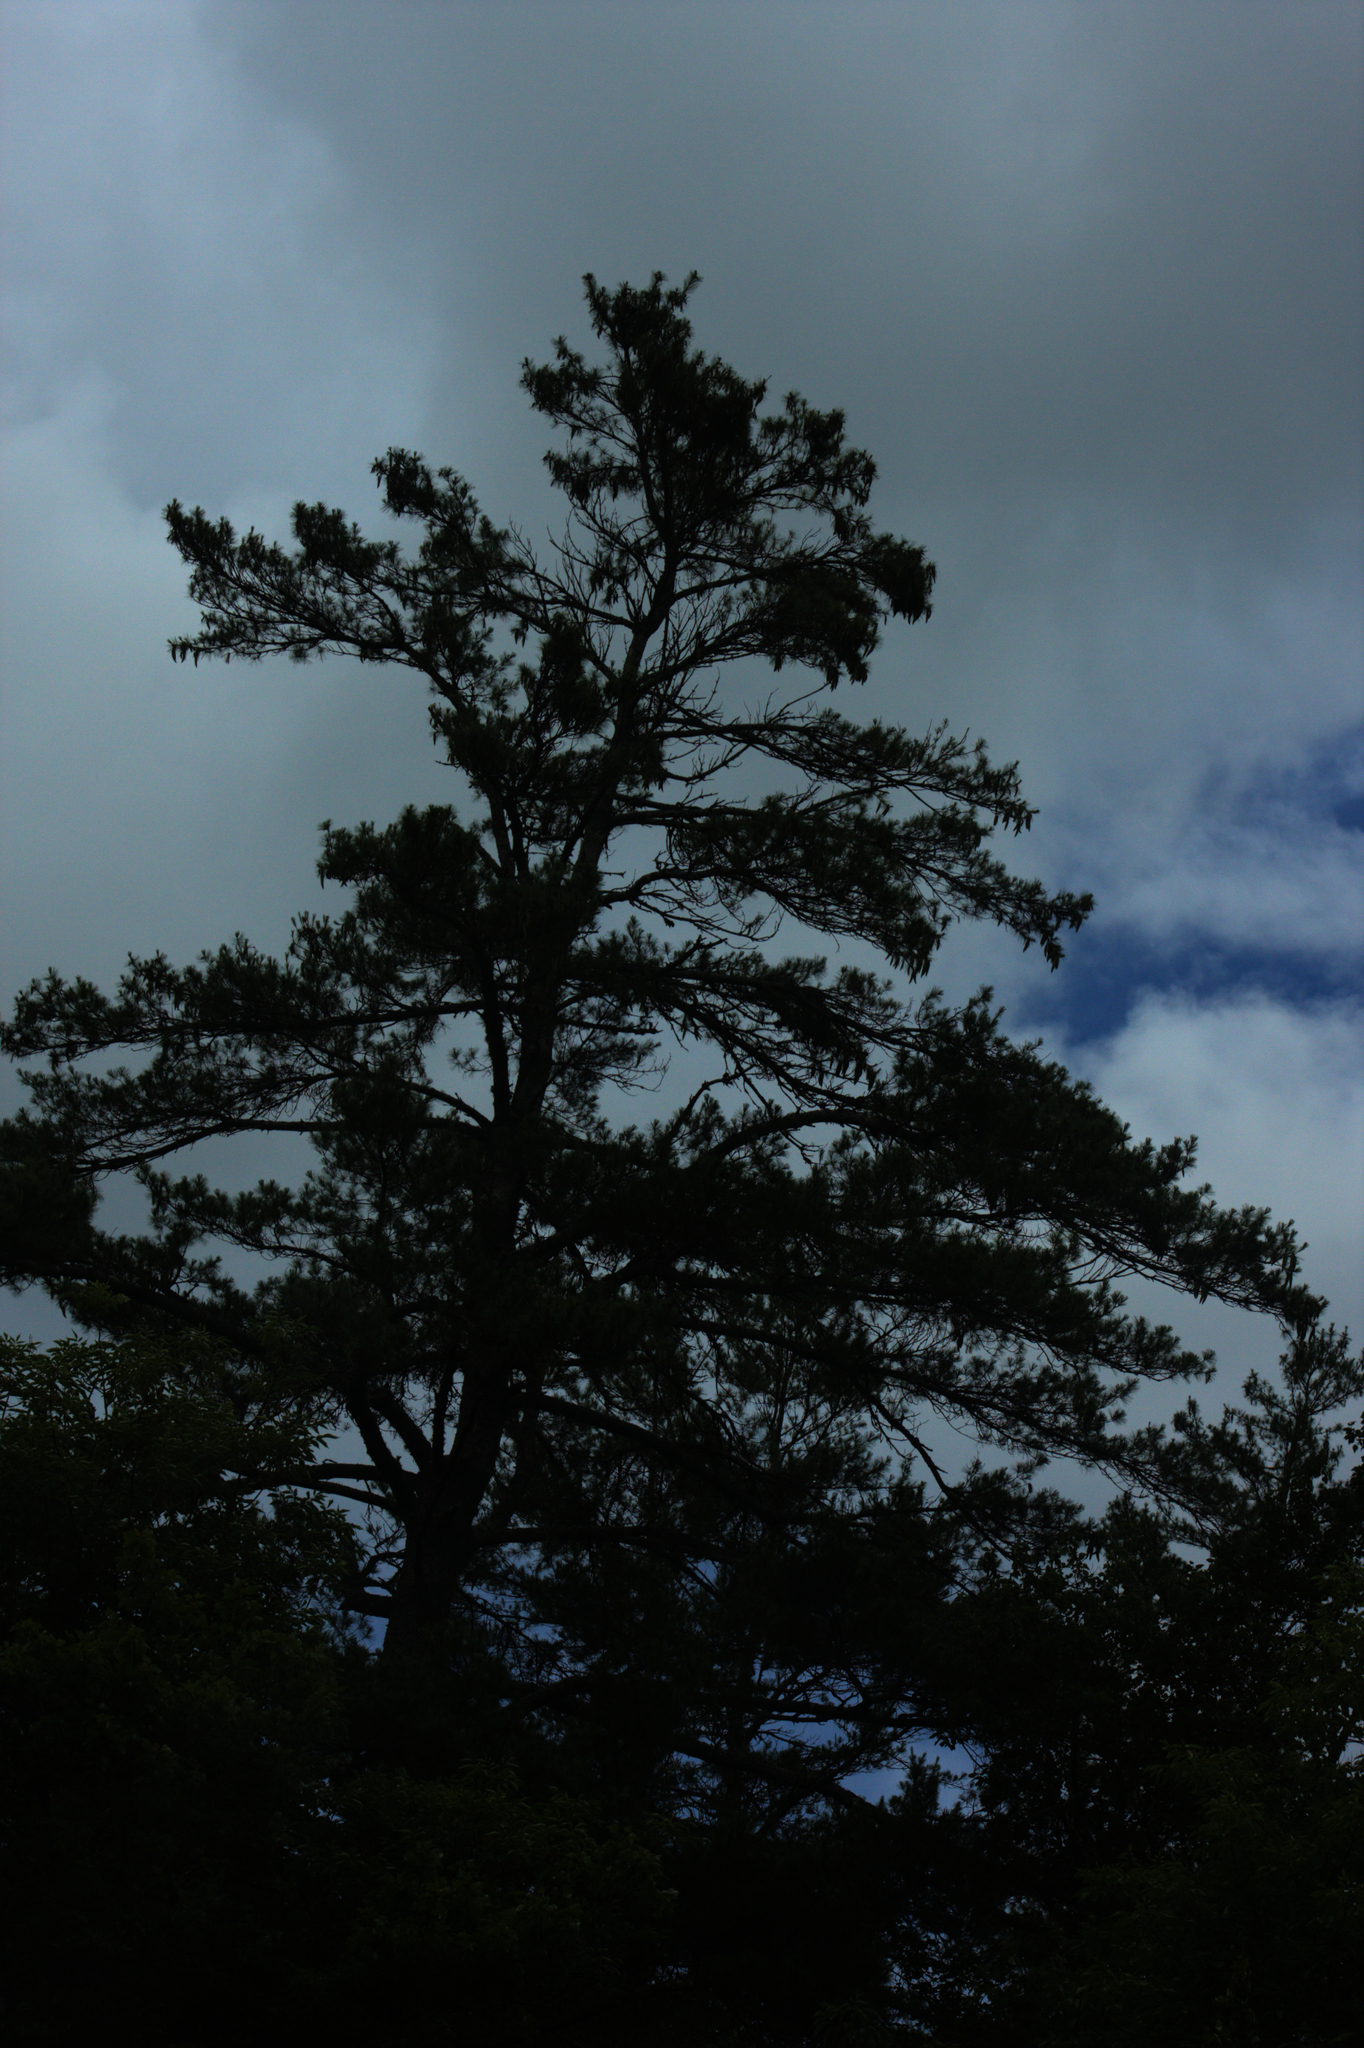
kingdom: Plantae
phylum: Tracheophyta
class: Pinopsida
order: Pinales
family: Pinaceae
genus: Pinus
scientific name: Pinus strobus
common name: Weymouth pine
